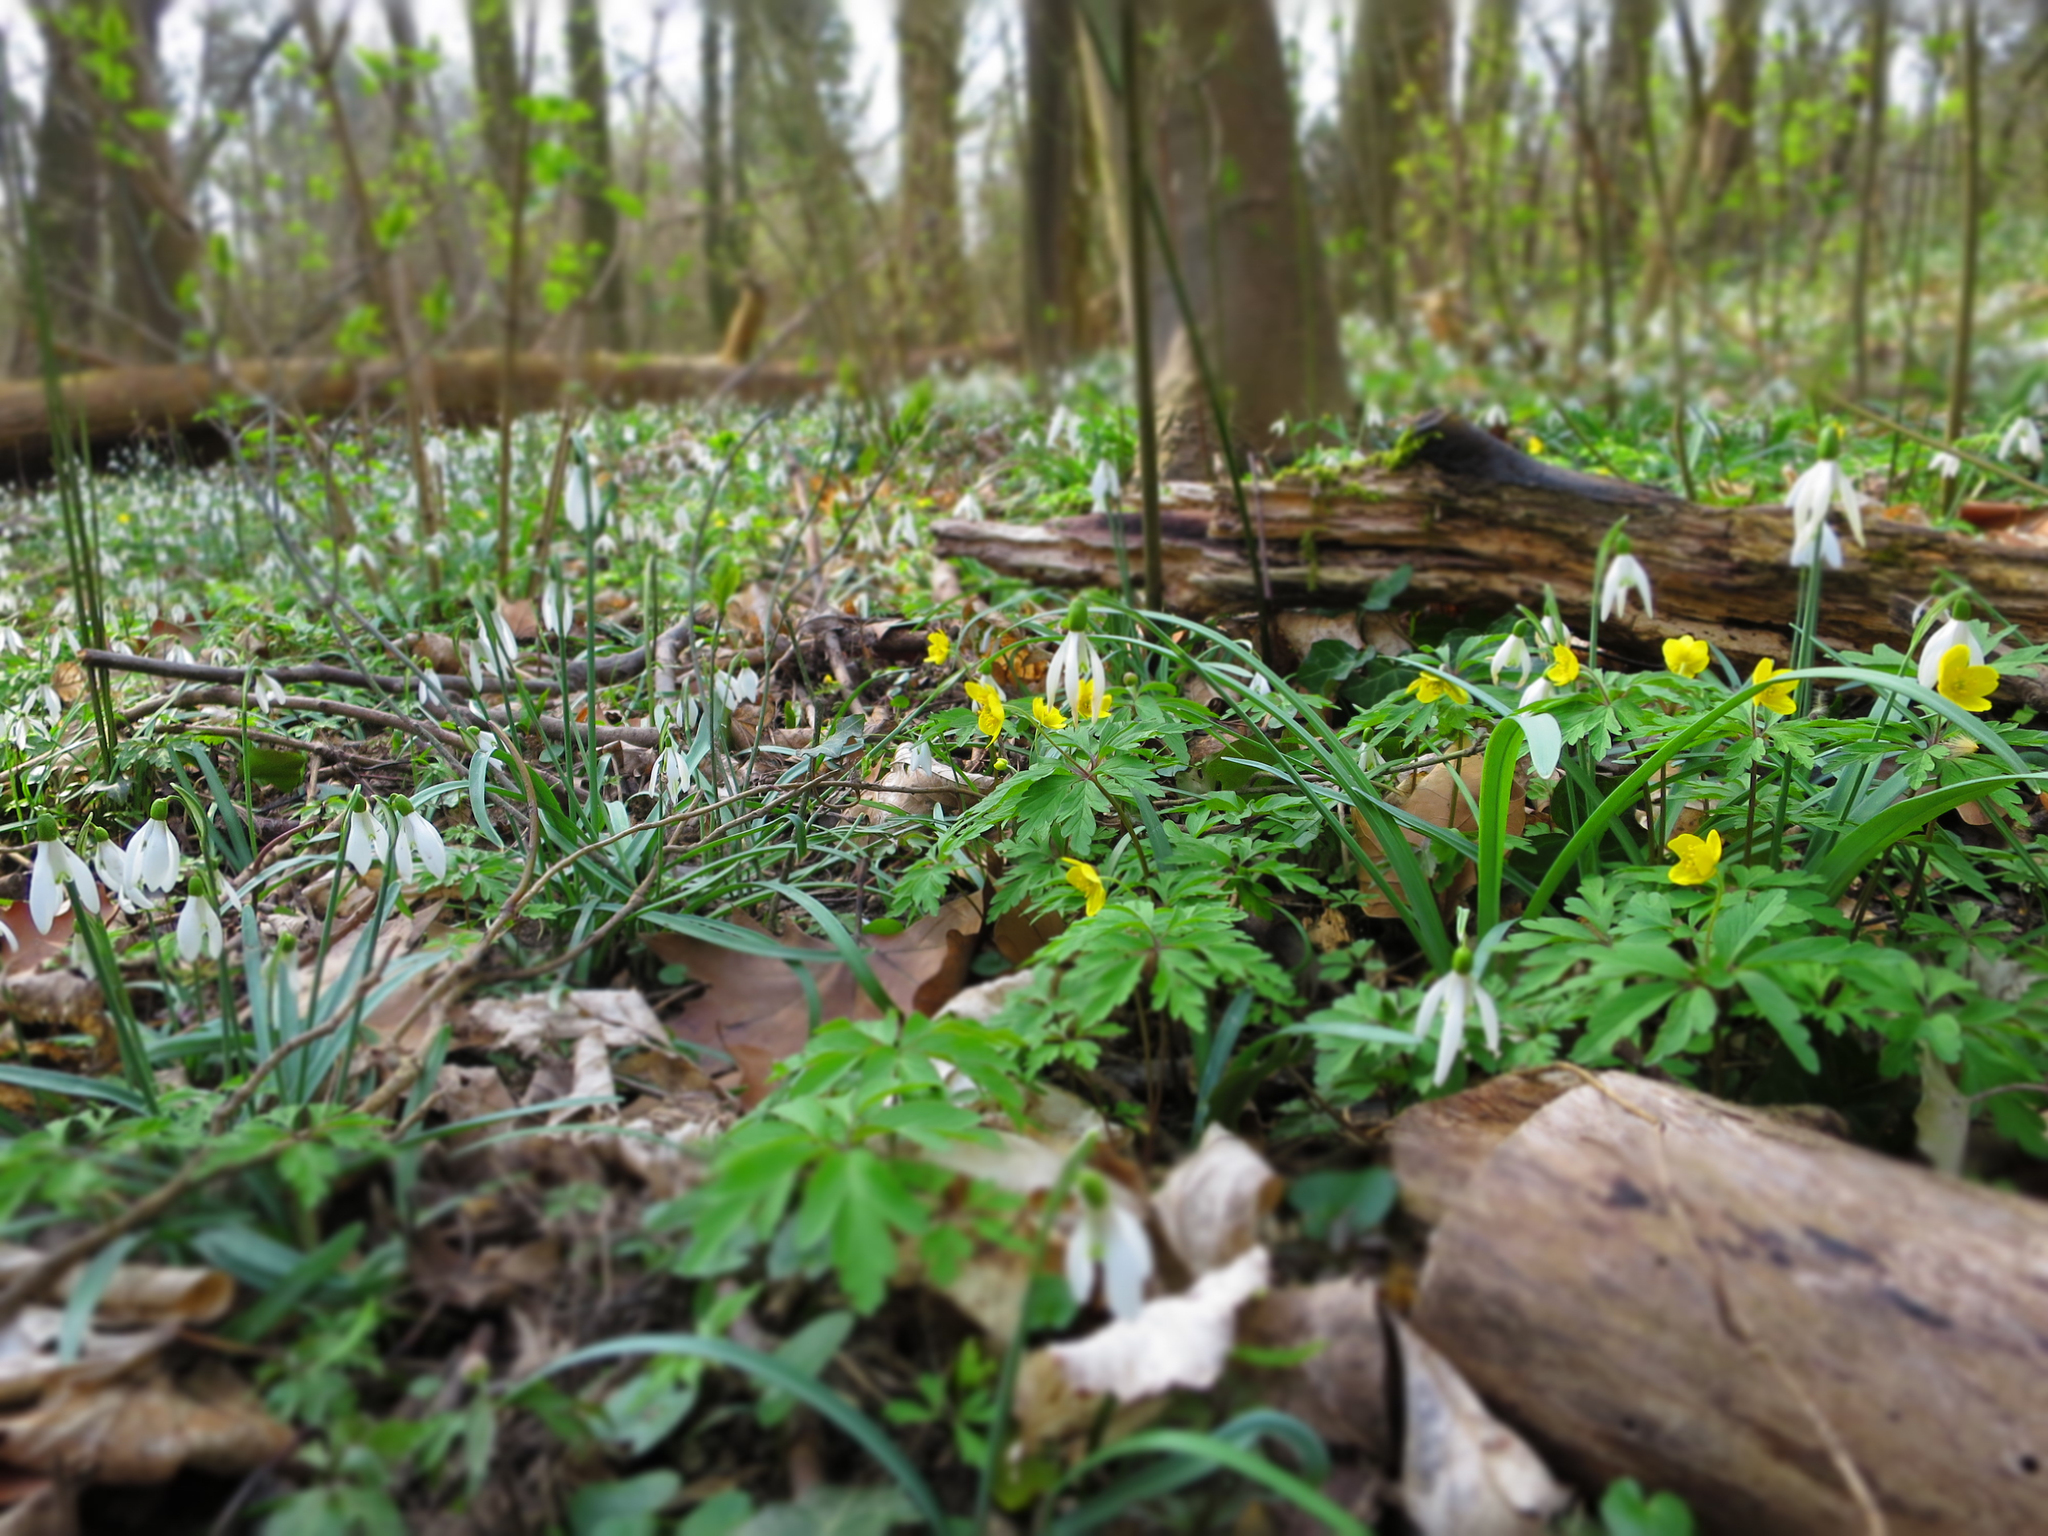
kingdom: Plantae
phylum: Tracheophyta
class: Liliopsida
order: Asparagales
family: Amaryllidaceae
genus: Galanthus
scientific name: Galanthus nivalis
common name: Snowdrop
